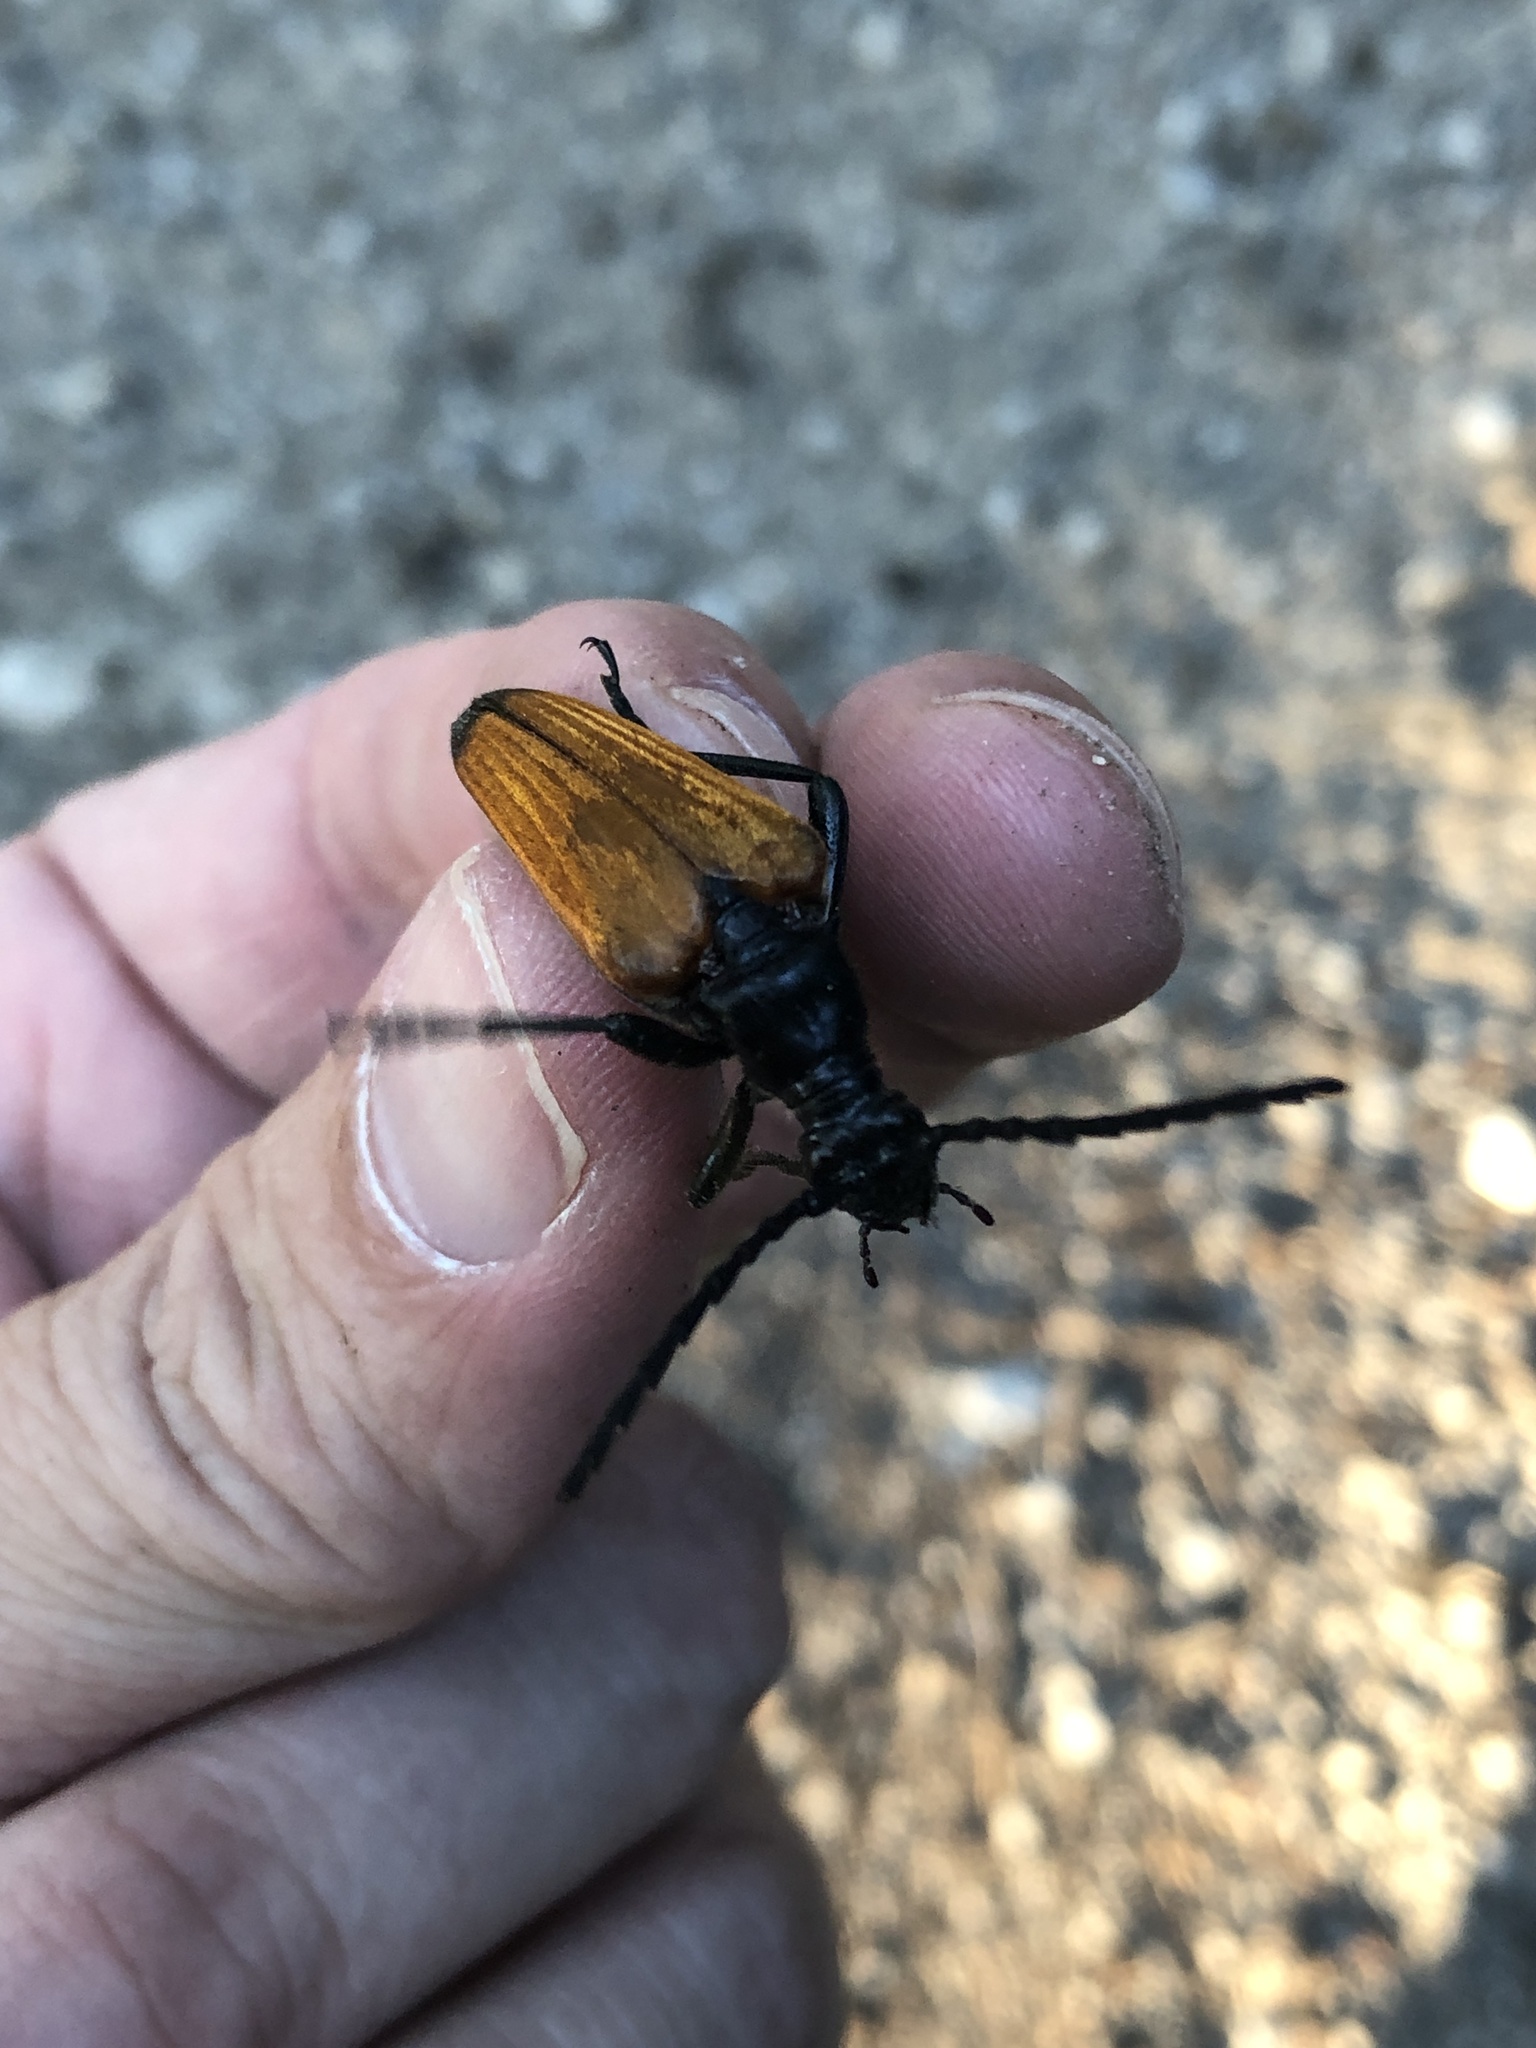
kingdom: Animalia
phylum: Arthropoda
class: Insecta
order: Coleoptera
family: Cerambycidae
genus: Stenelytrana
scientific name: Stenelytrana gigas
